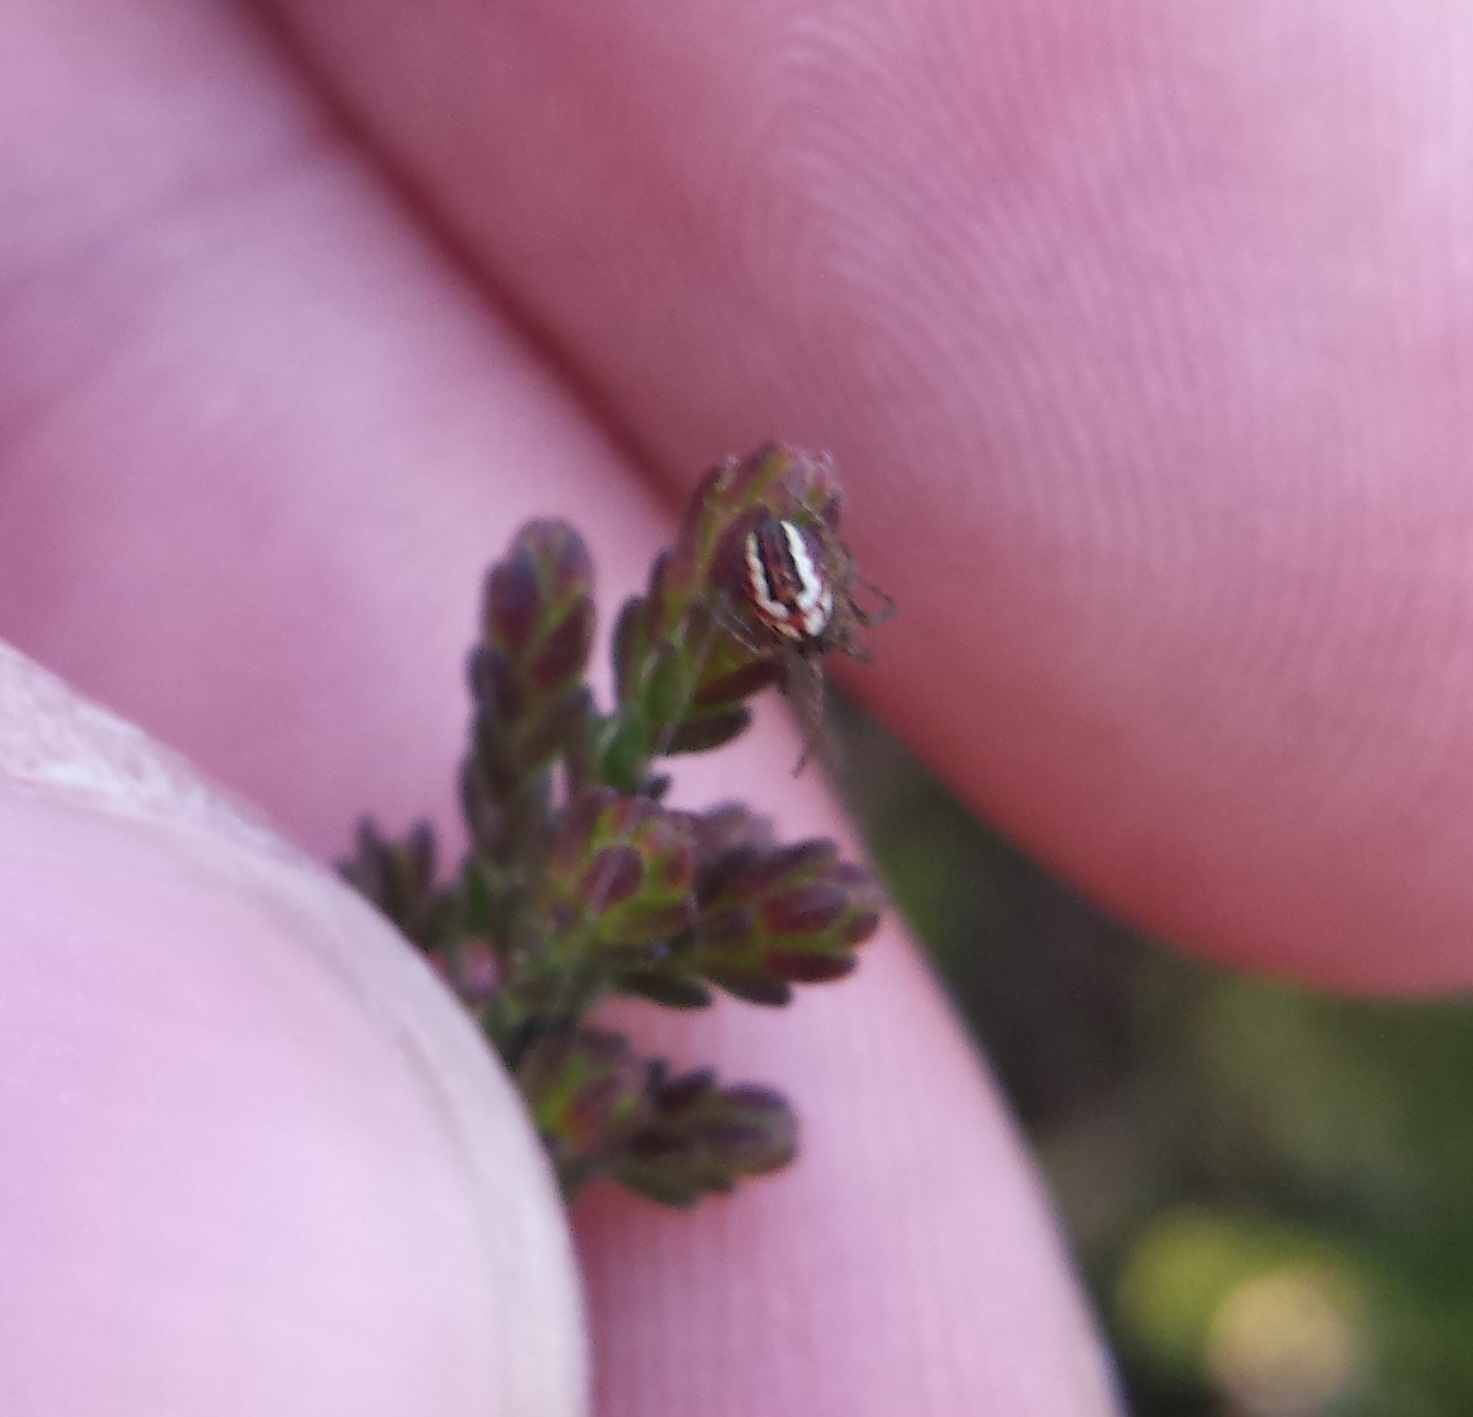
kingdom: Animalia
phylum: Arthropoda
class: Arachnida
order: Araneae
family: Araneidae
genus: Mangora
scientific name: Mangora acalypha
